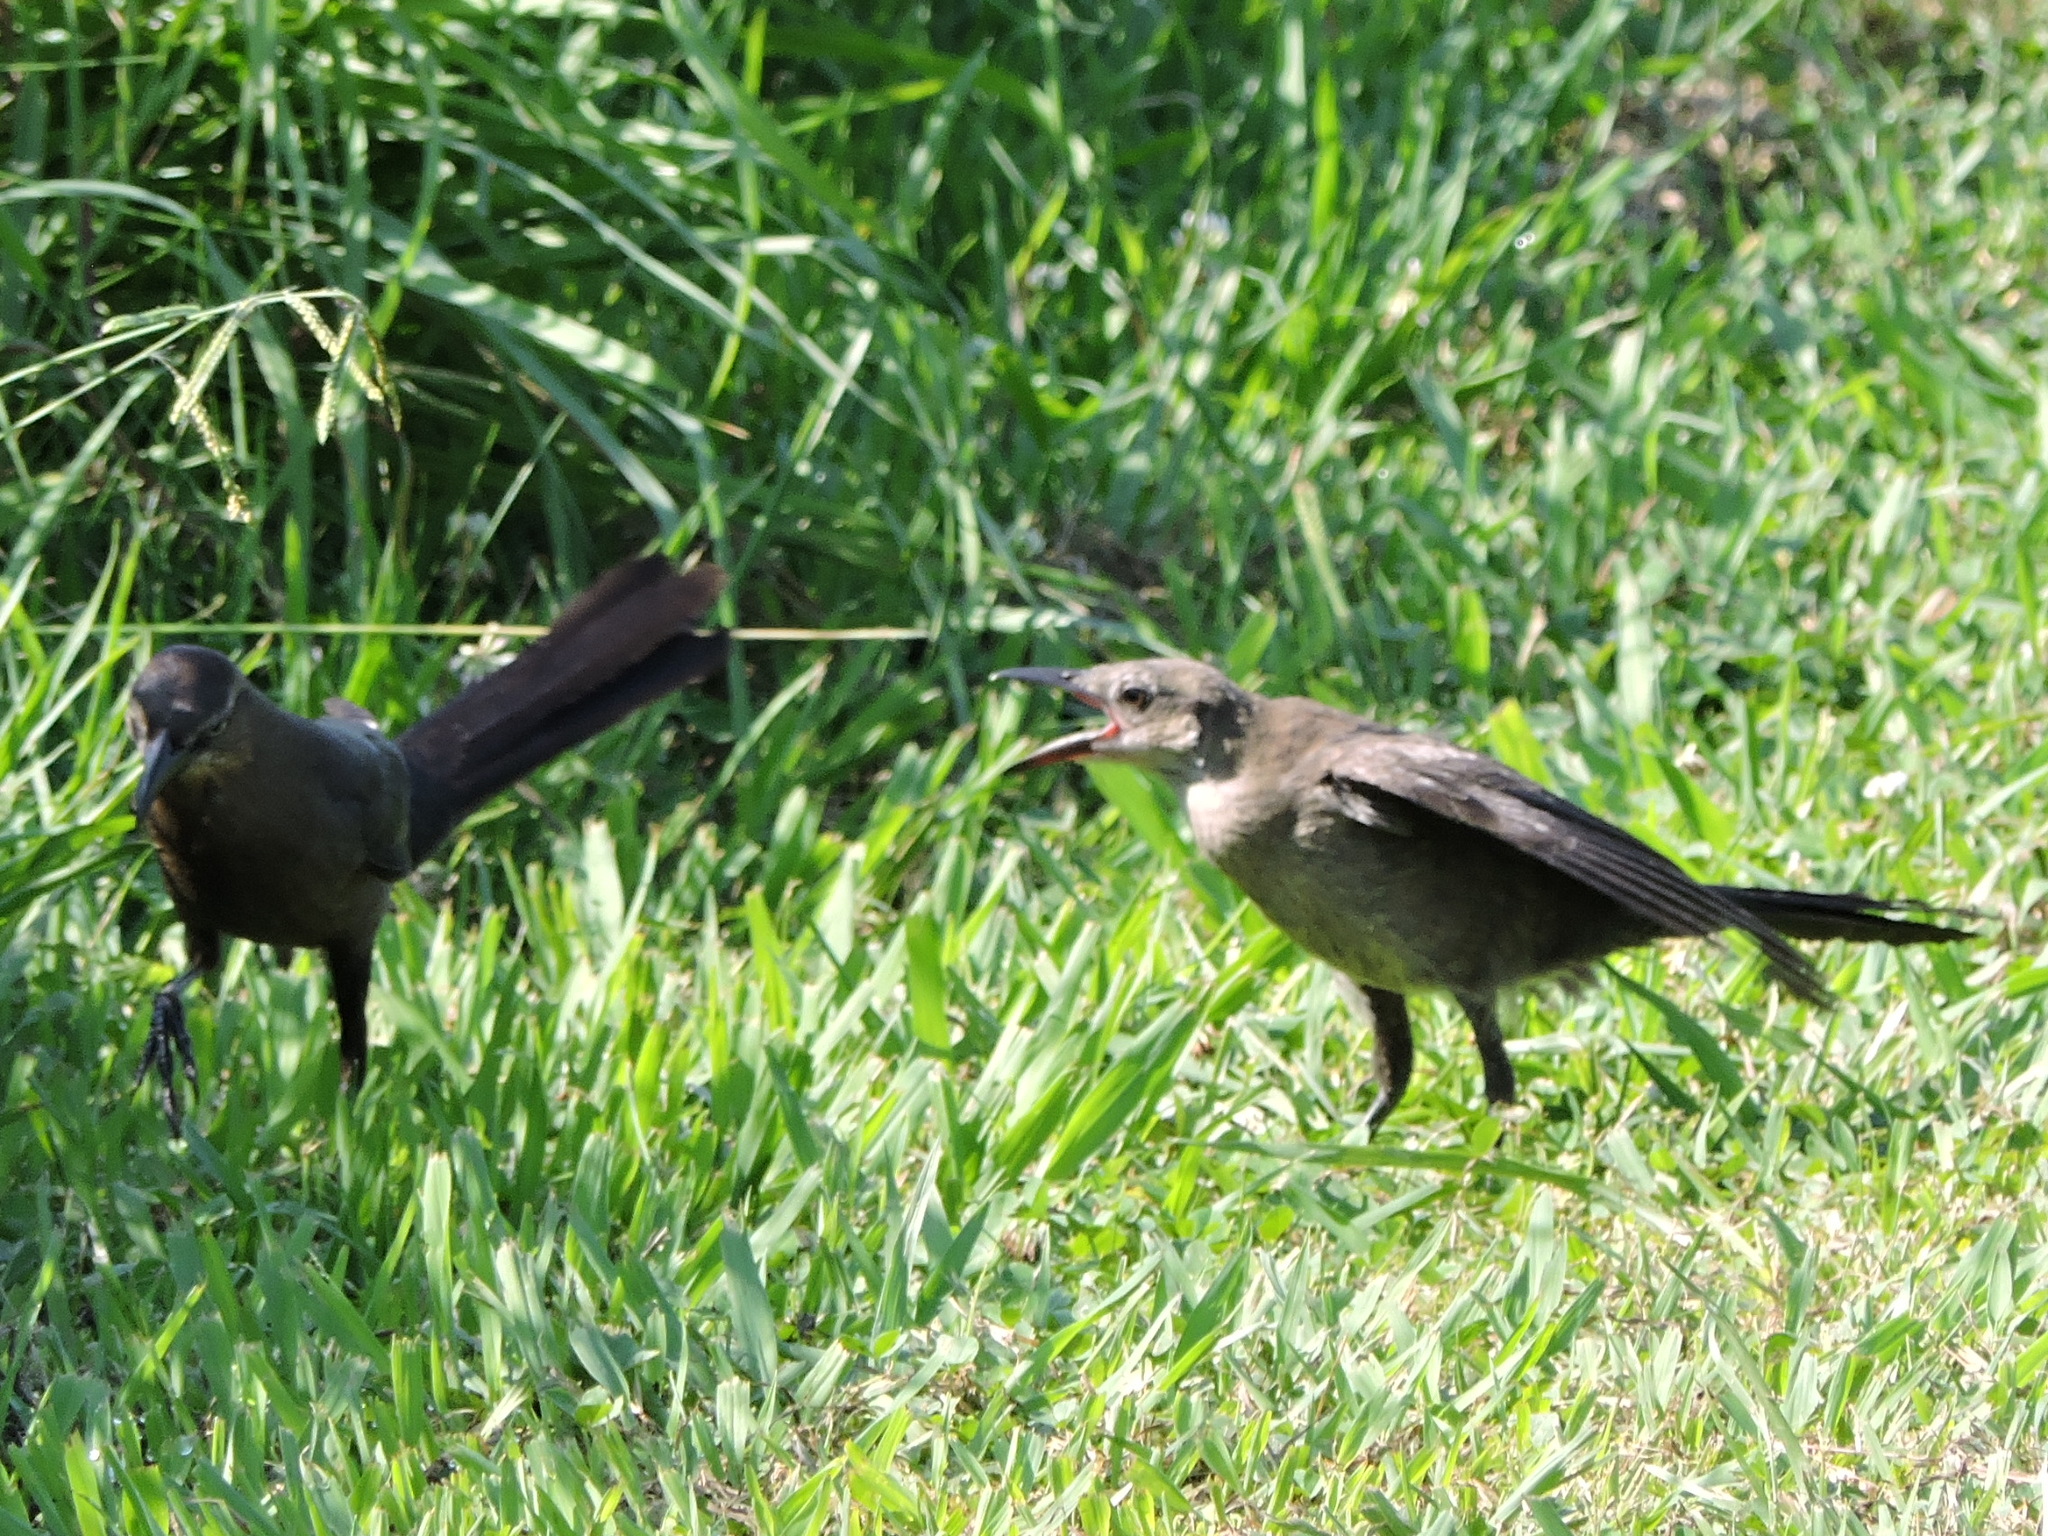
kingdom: Animalia
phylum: Chordata
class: Aves
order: Passeriformes
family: Icteridae
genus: Quiscalus
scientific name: Quiscalus mexicanus
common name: Great-tailed grackle
